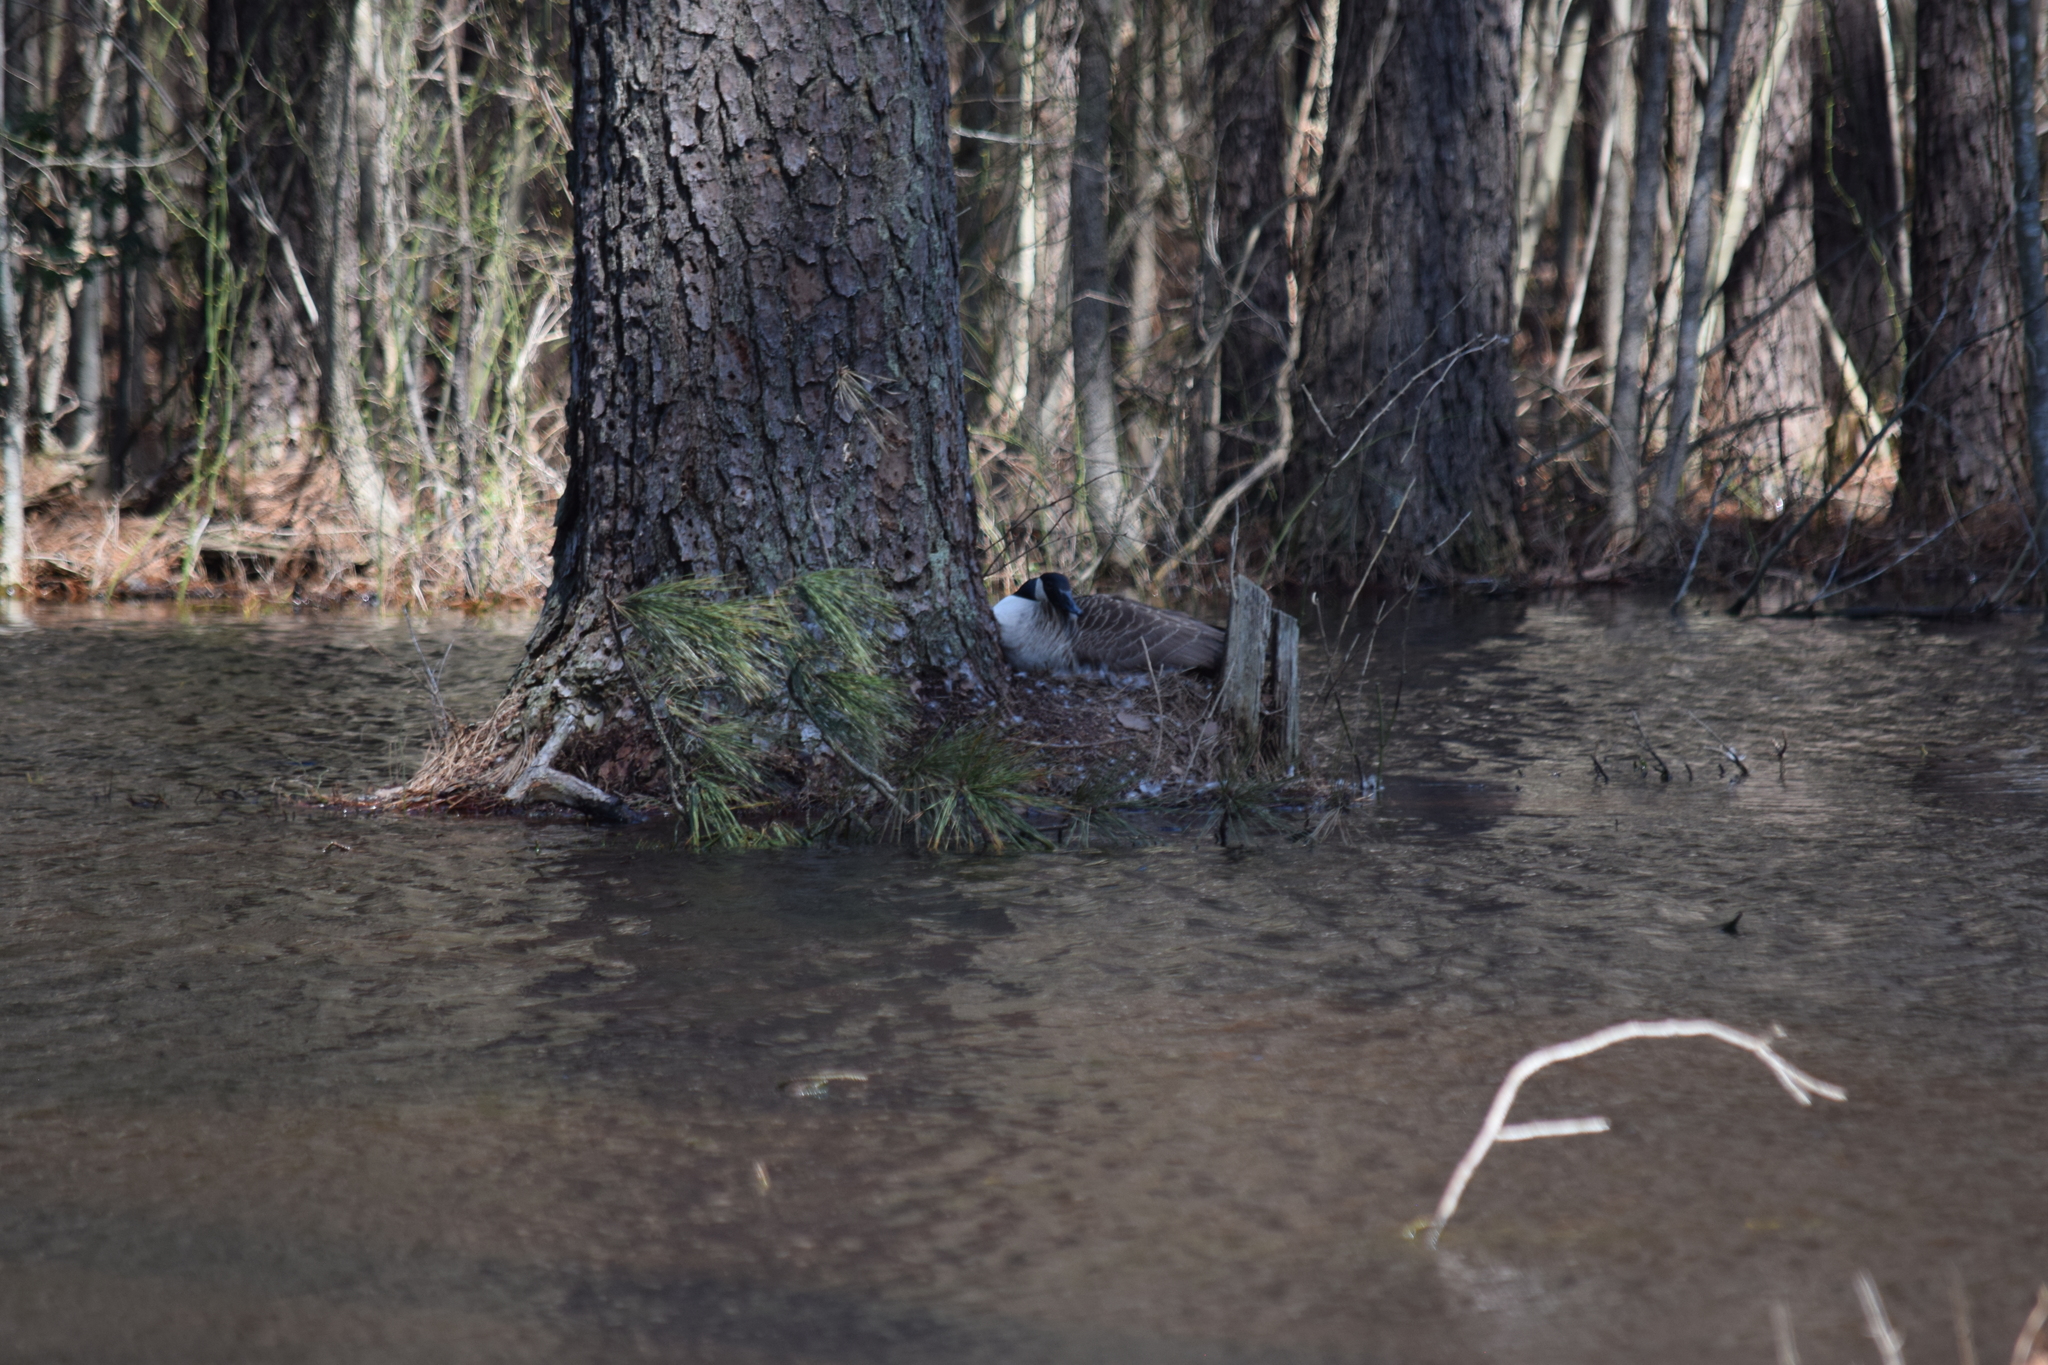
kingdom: Animalia
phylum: Chordata
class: Aves
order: Anseriformes
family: Anatidae
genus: Branta
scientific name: Branta canadensis
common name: Canada goose
